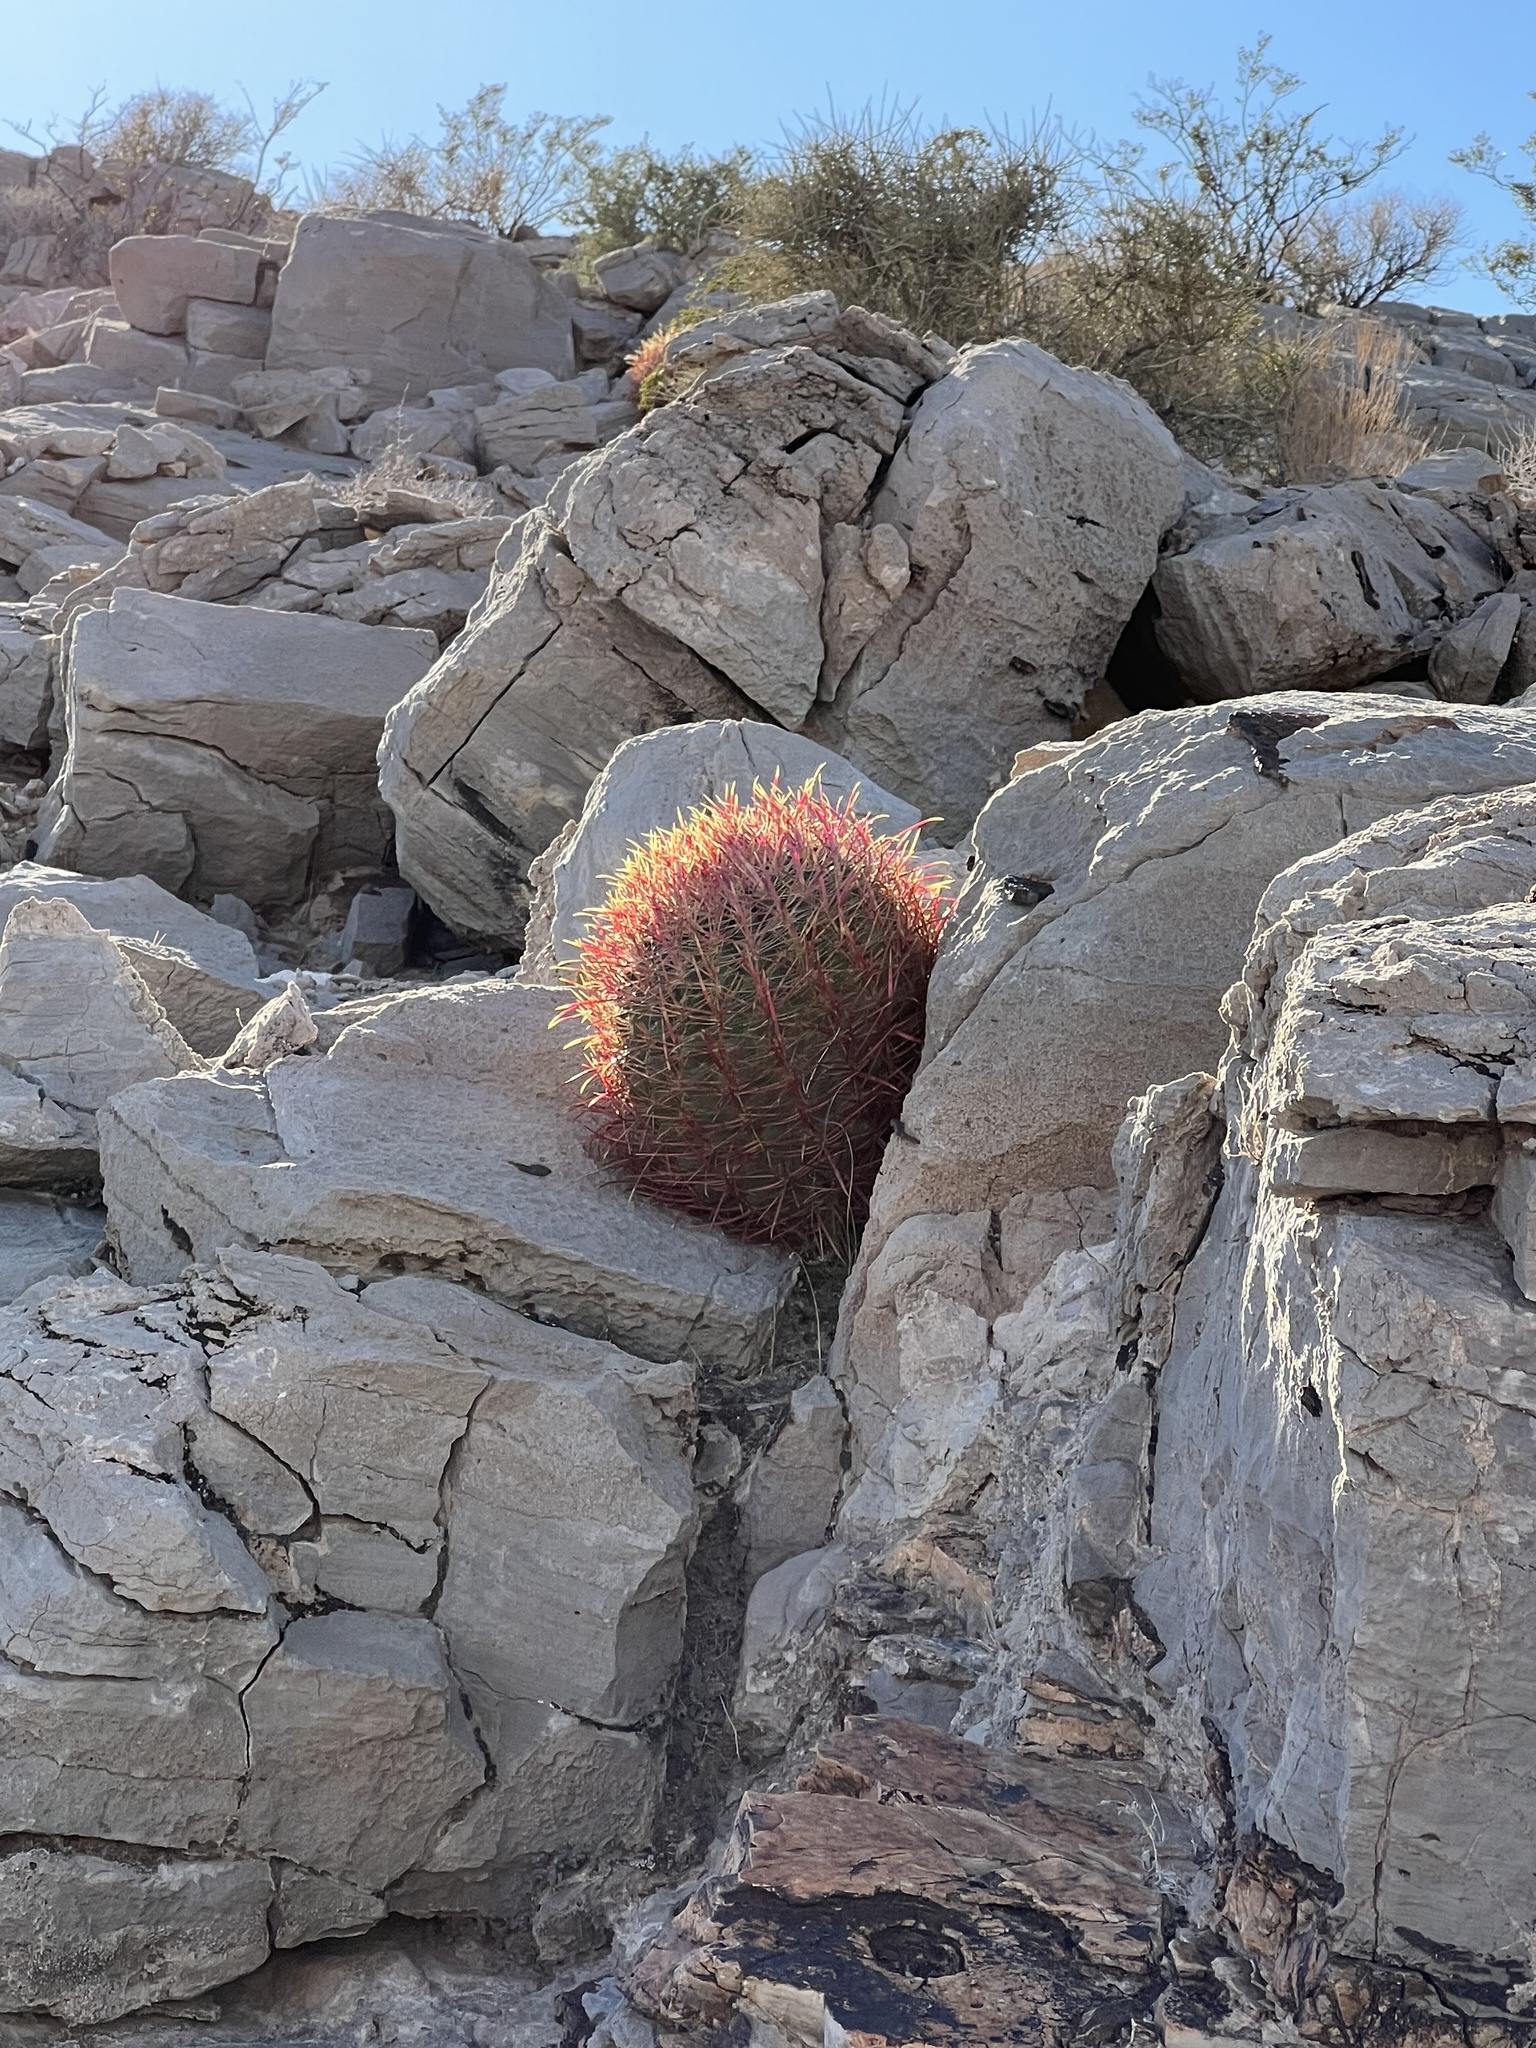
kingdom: Plantae
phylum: Tracheophyta
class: Magnoliopsida
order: Caryophyllales
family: Cactaceae
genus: Ferocactus
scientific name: Ferocactus cylindraceus
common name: California barrel cactus
